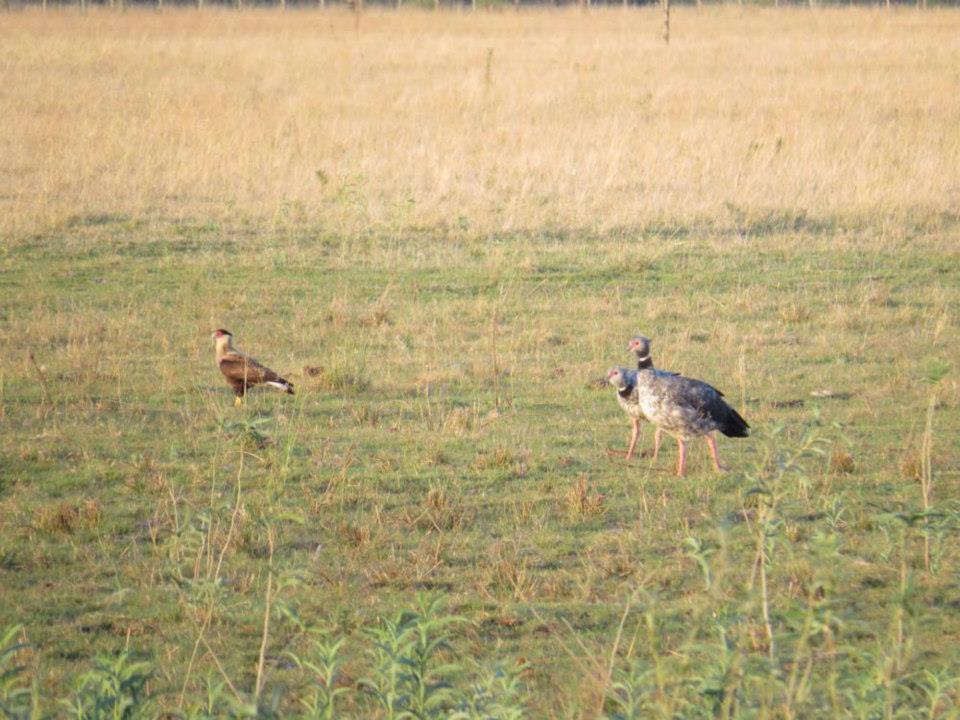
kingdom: Animalia
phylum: Chordata
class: Aves
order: Falconiformes
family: Falconidae
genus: Caracara
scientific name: Caracara plancus
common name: Southern caracara
